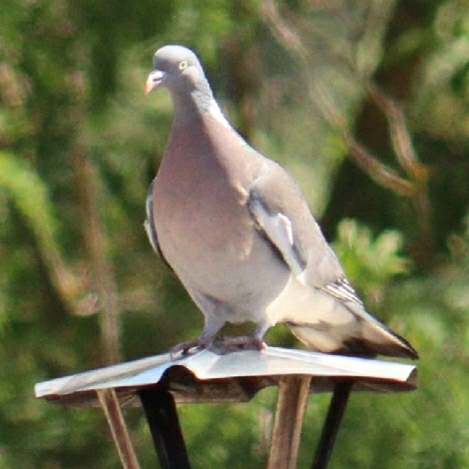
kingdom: Animalia
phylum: Chordata
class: Aves
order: Columbiformes
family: Columbidae
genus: Columba
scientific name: Columba palumbus
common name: Common wood pigeon
